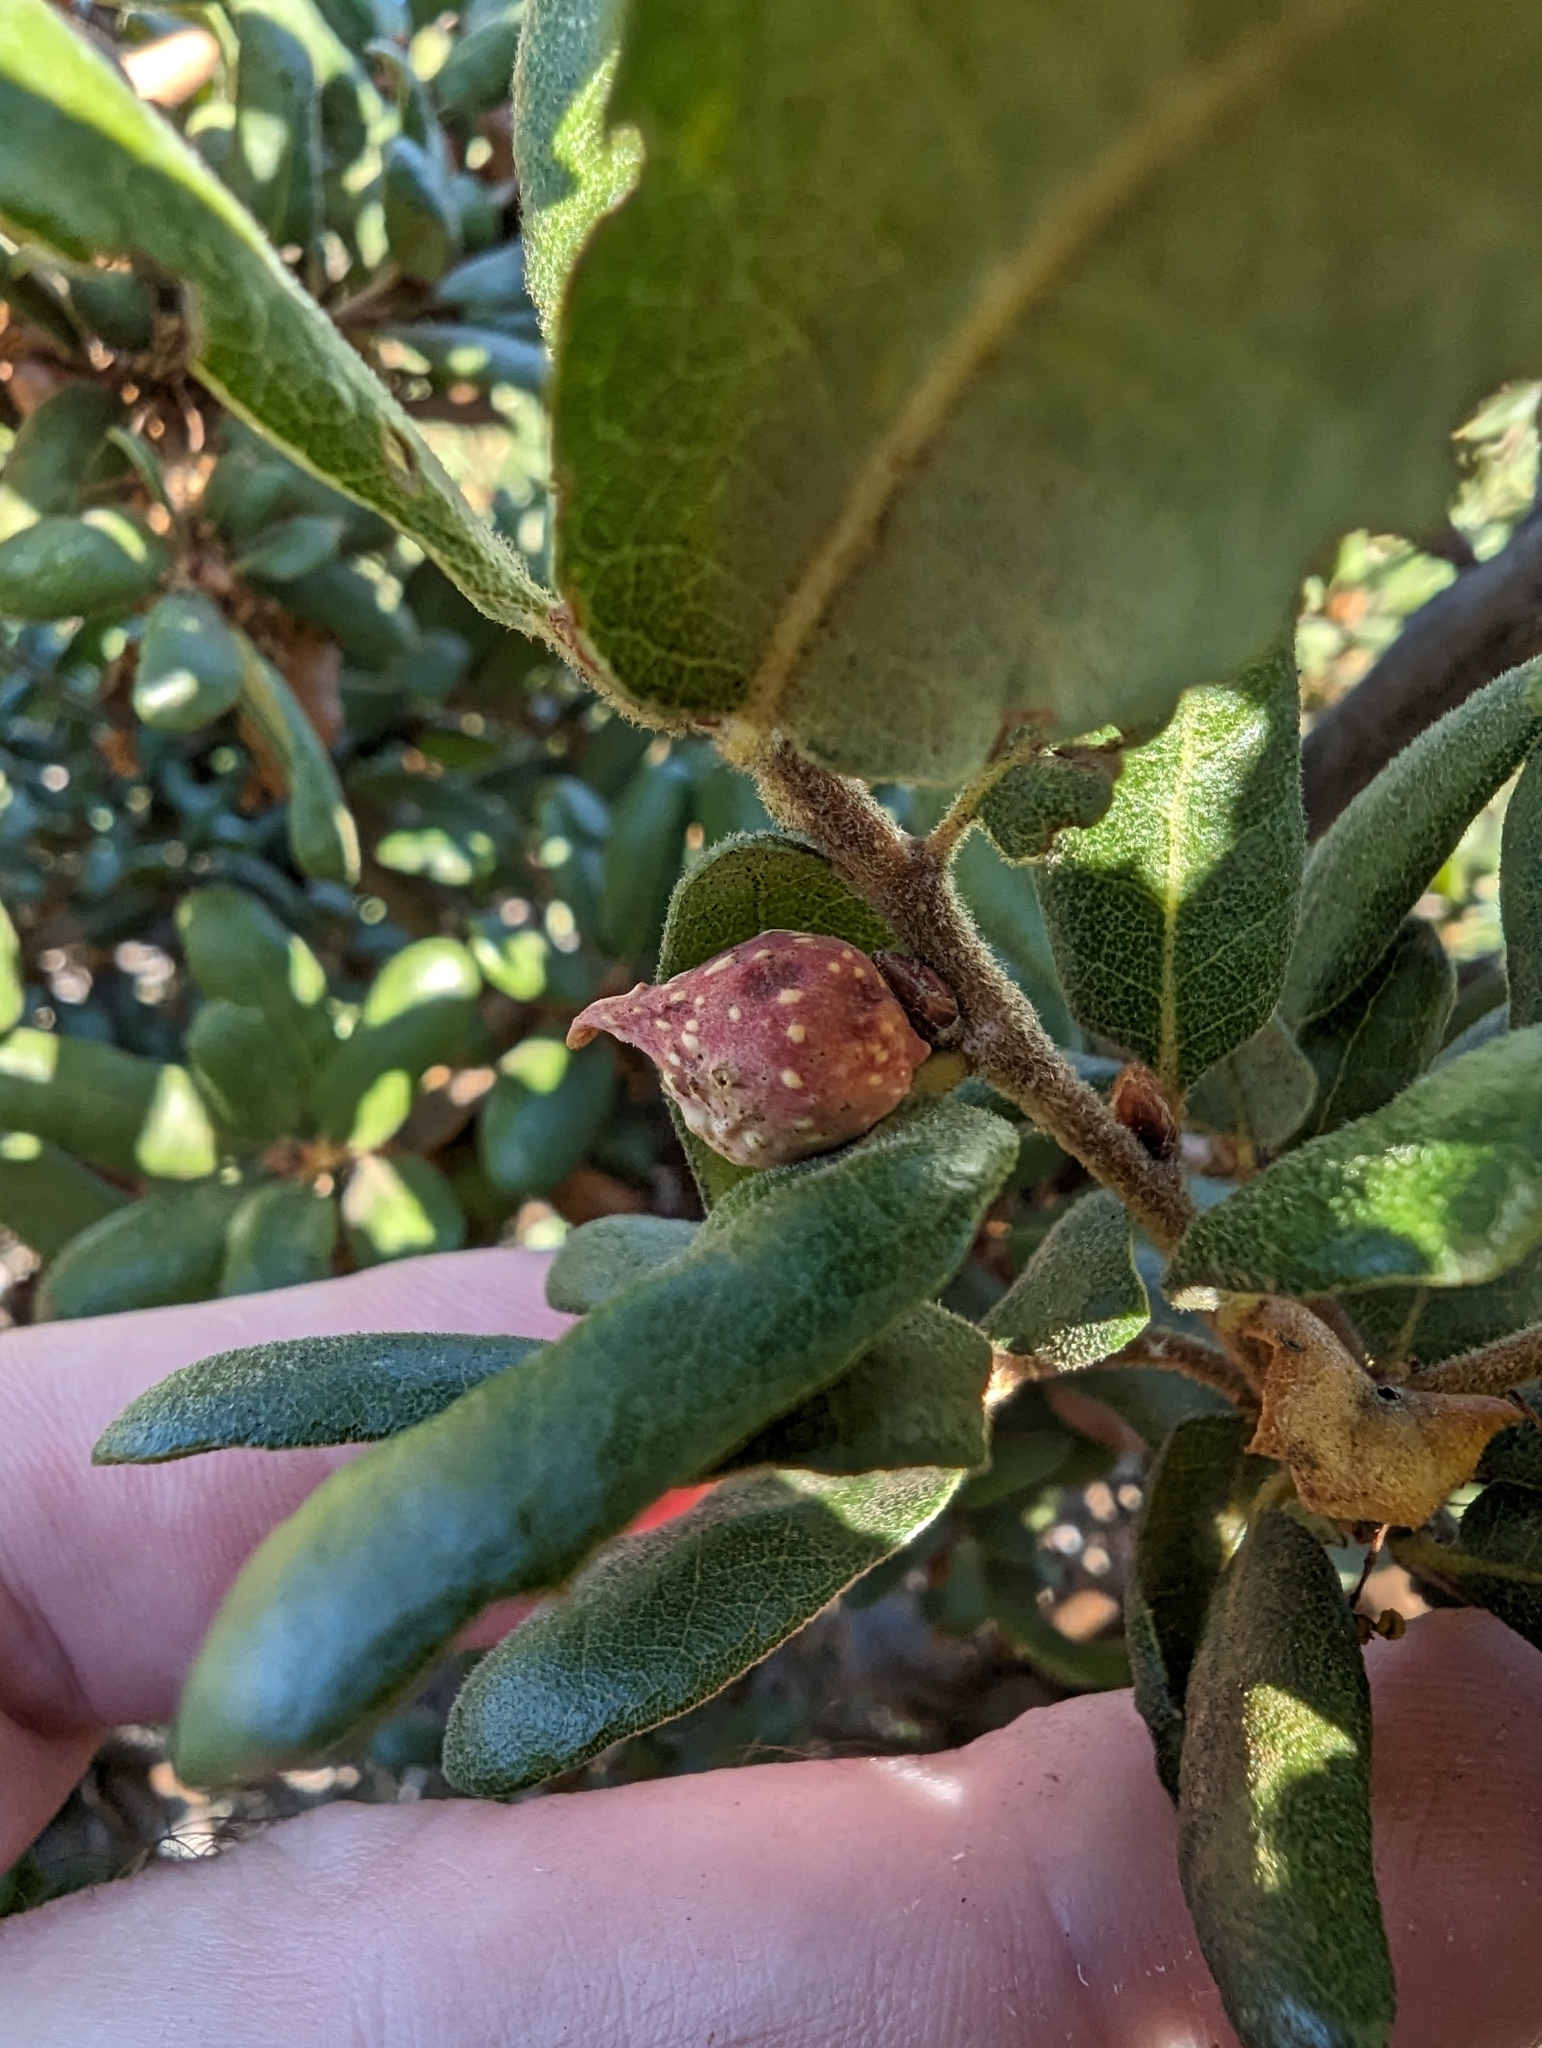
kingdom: Animalia
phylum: Arthropoda
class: Insecta
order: Hymenoptera
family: Cynipidae
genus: Burnettweldia
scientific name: Burnettweldia
